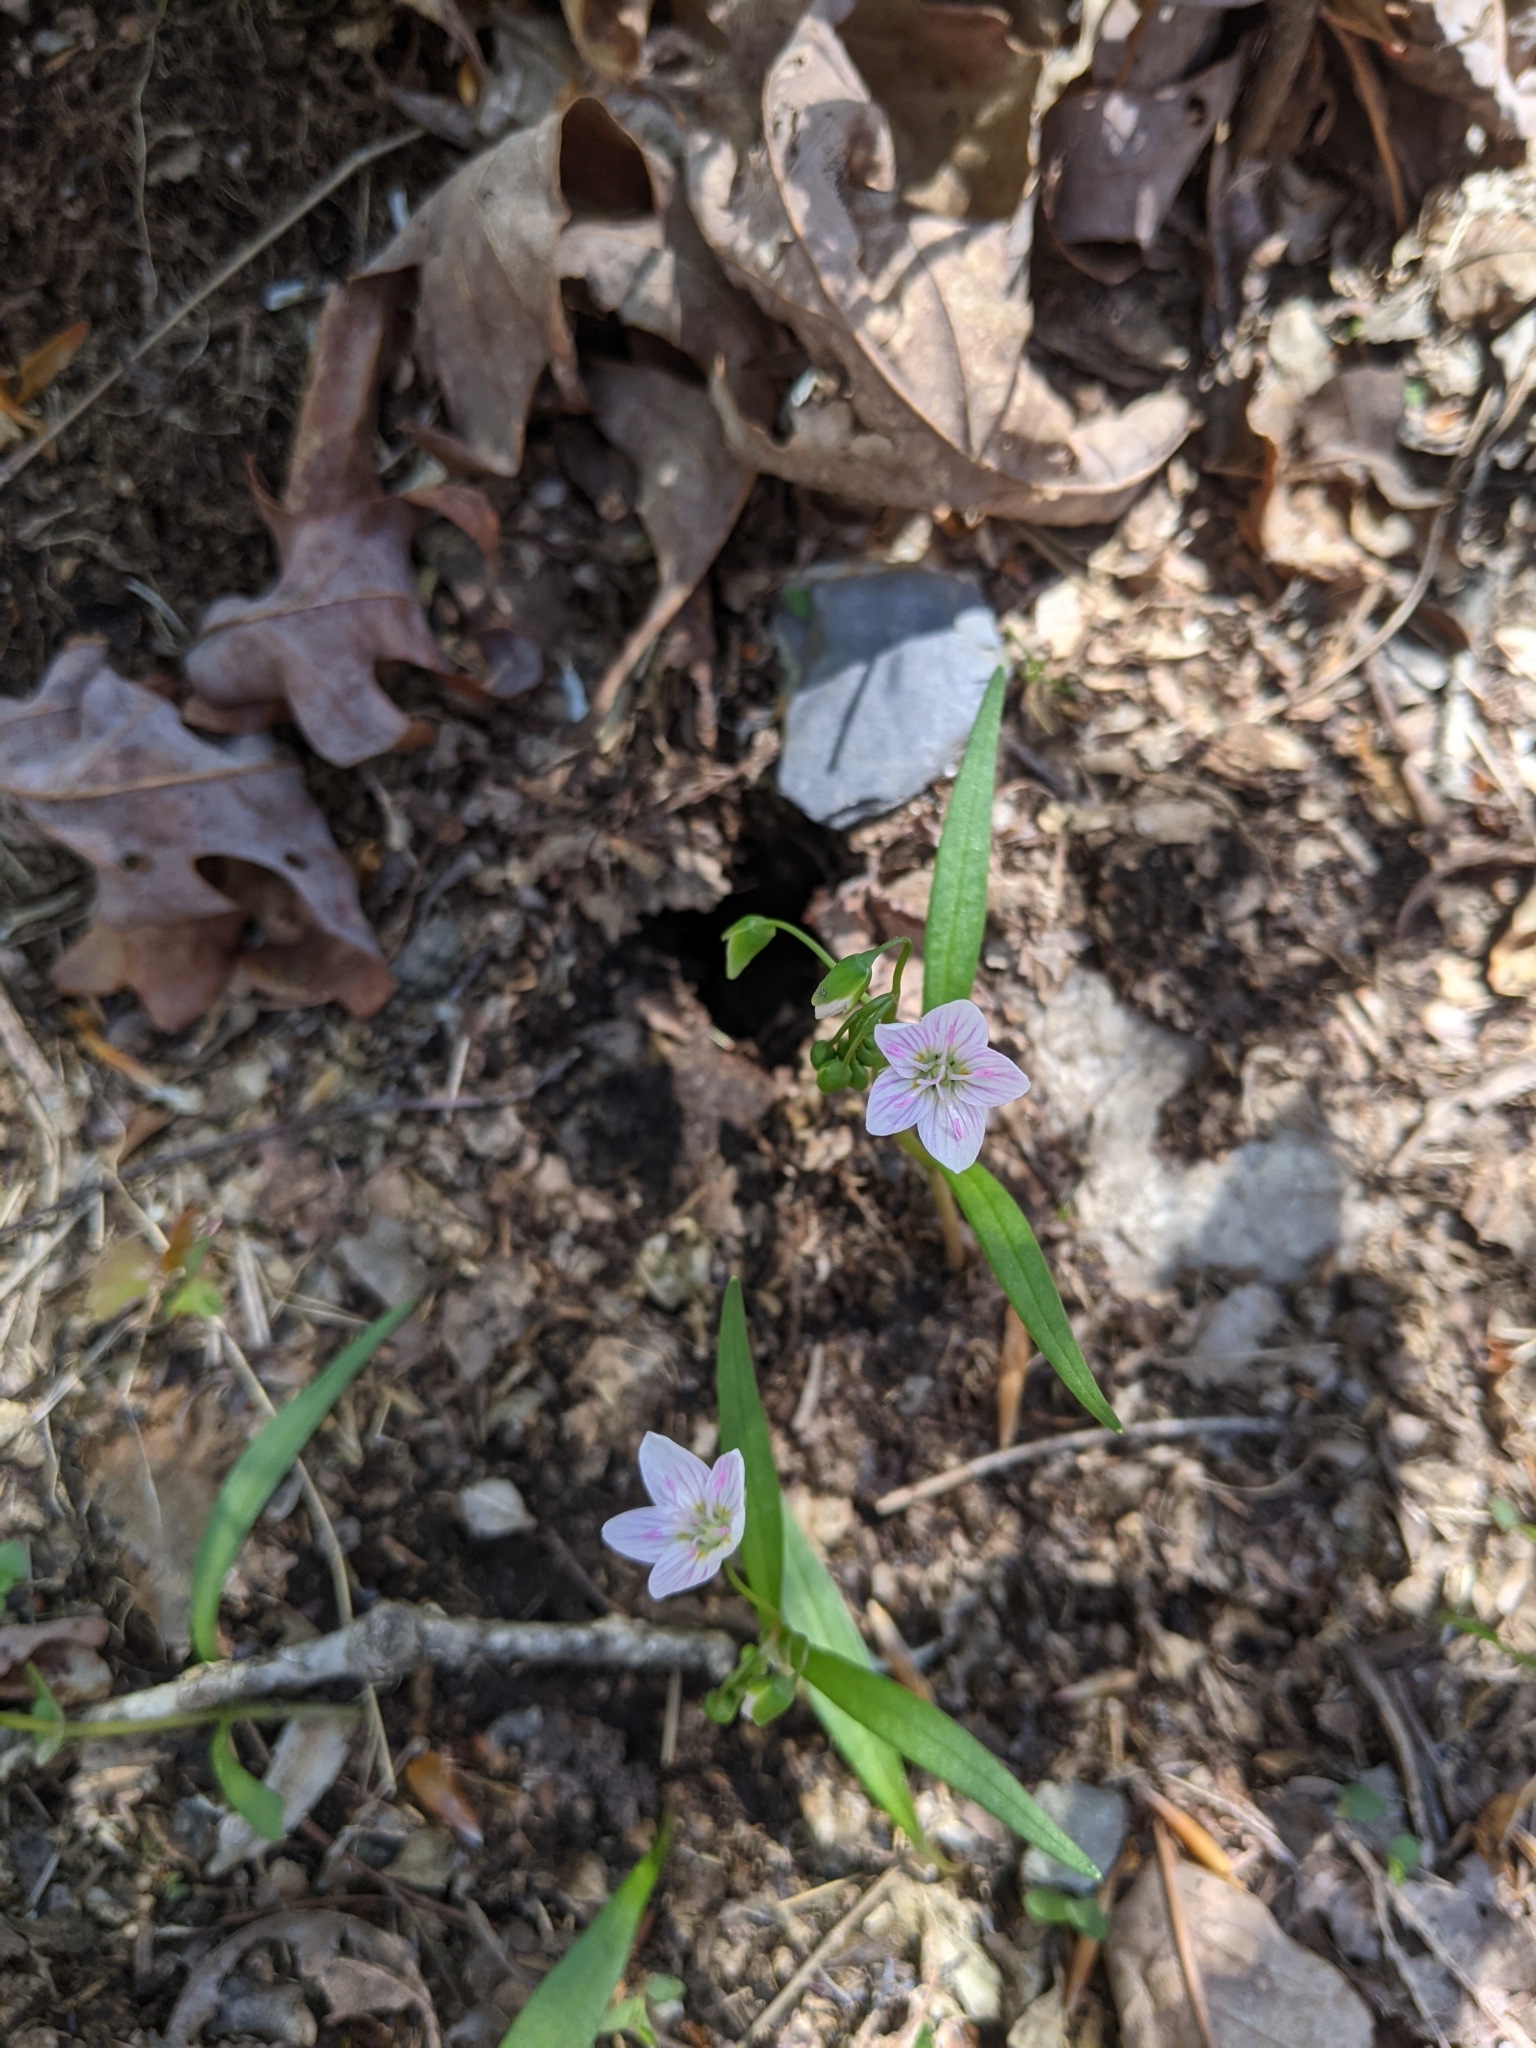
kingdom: Plantae
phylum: Tracheophyta
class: Magnoliopsida
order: Caryophyllales
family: Montiaceae
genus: Claytonia
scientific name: Claytonia virginica
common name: Virginia springbeauty
